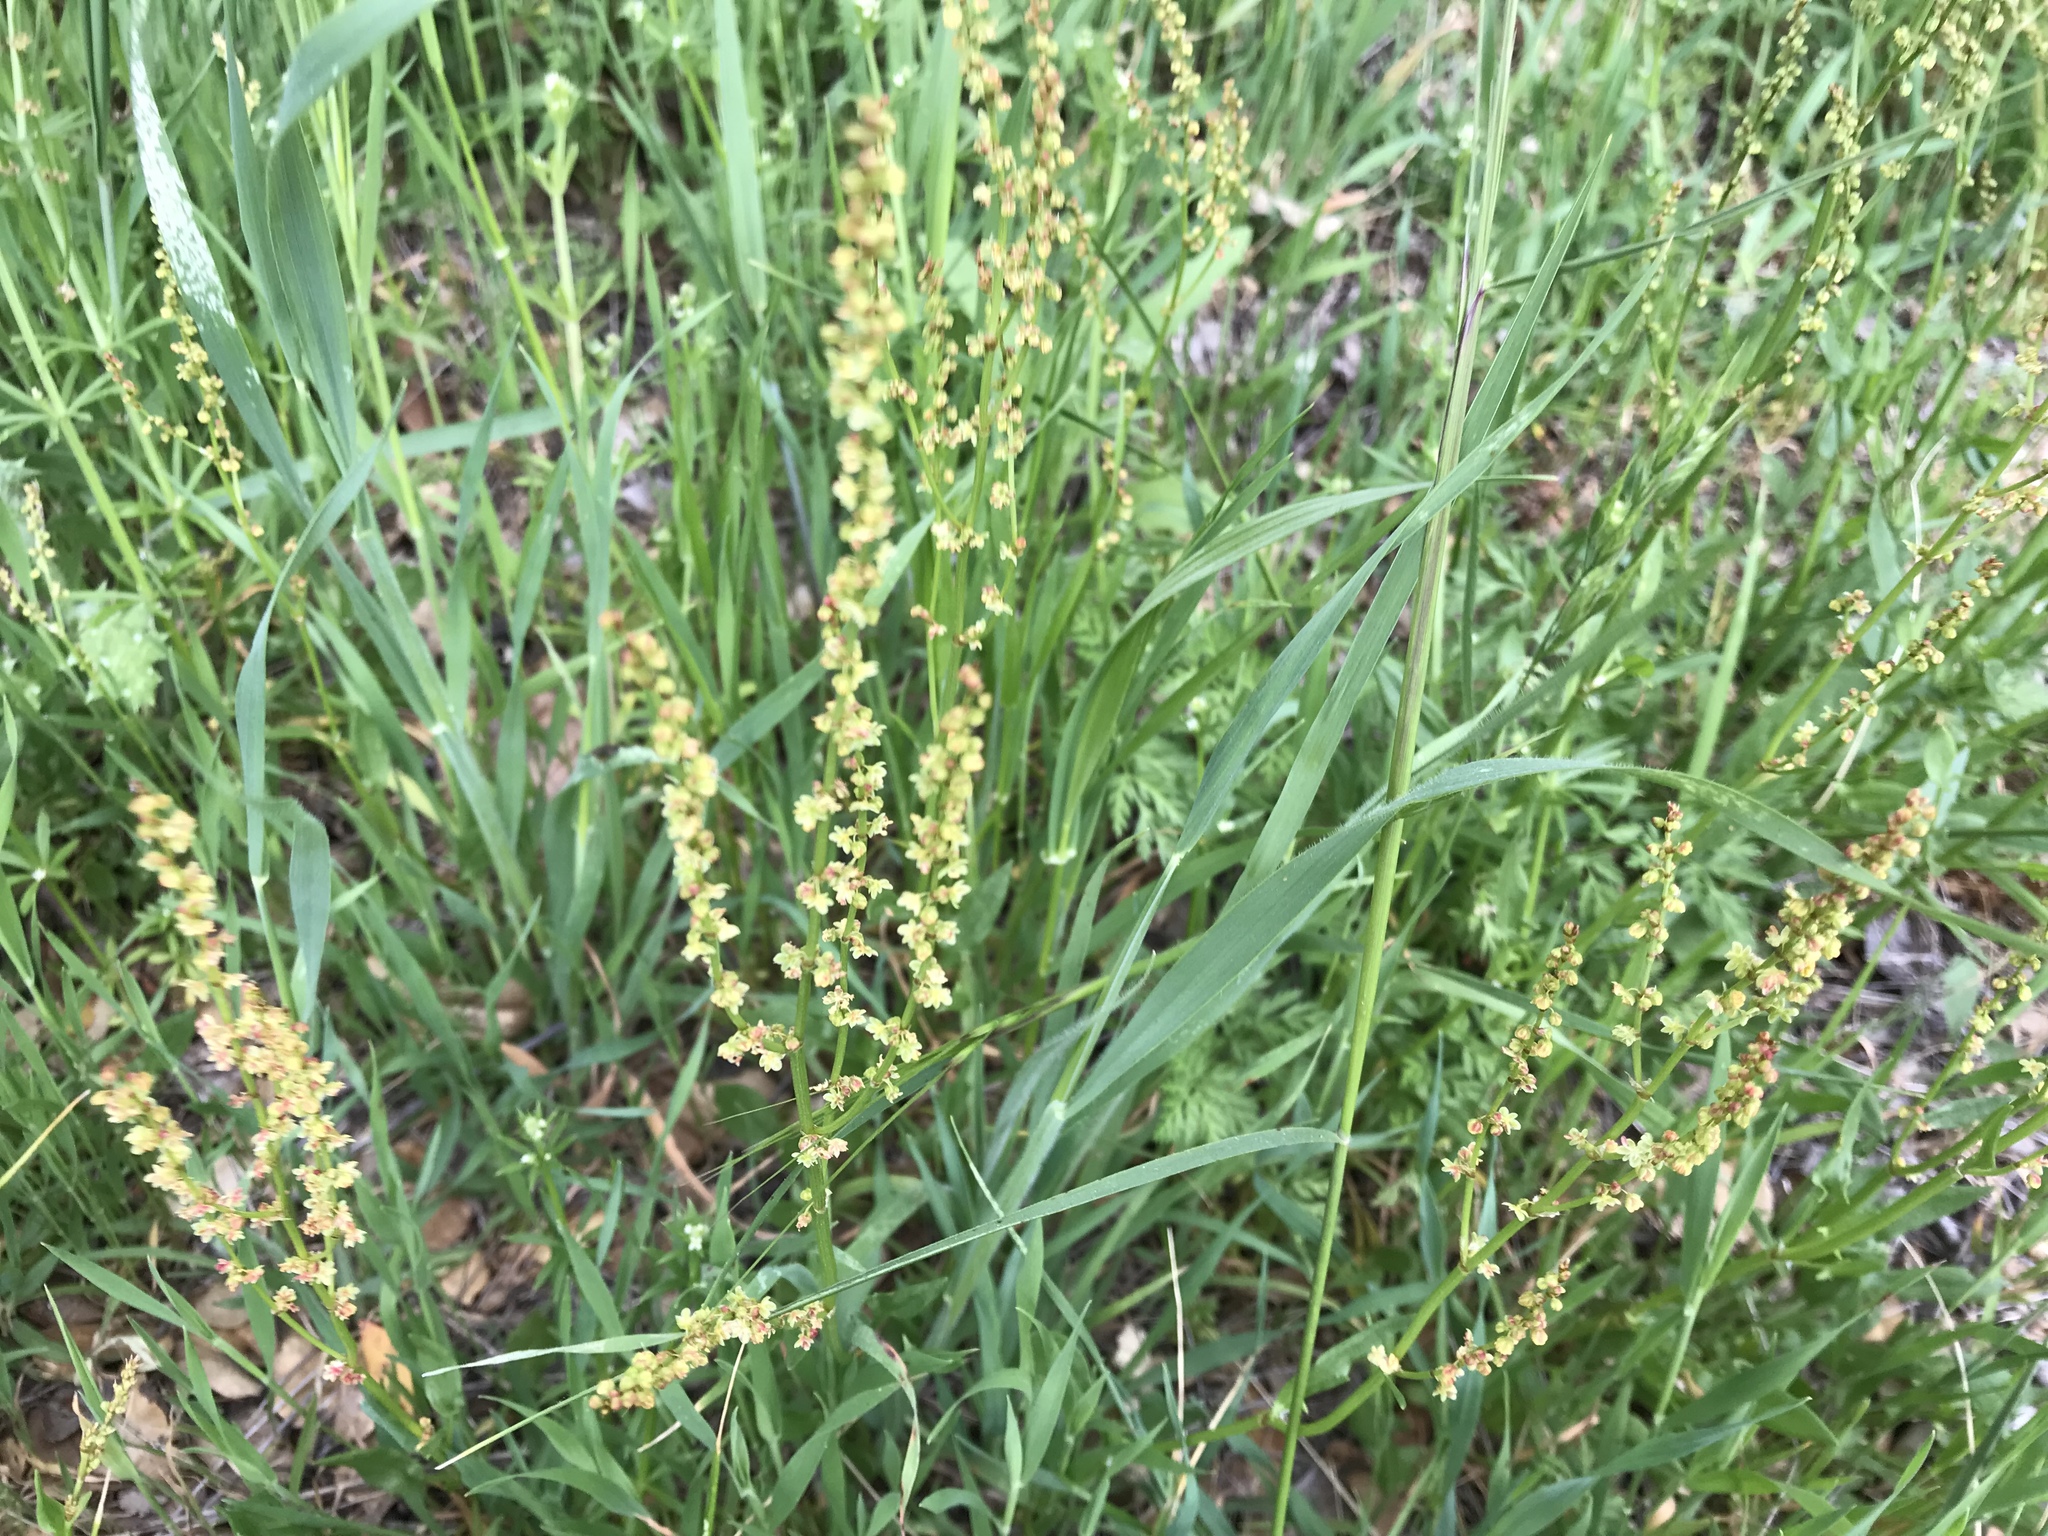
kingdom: Plantae
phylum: Tracheophyta
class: Magnoliopsida
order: Caryophyllales
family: Polygonaceae
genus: Rumex
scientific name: Rumex acetosella
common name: Common sheep sorrel
